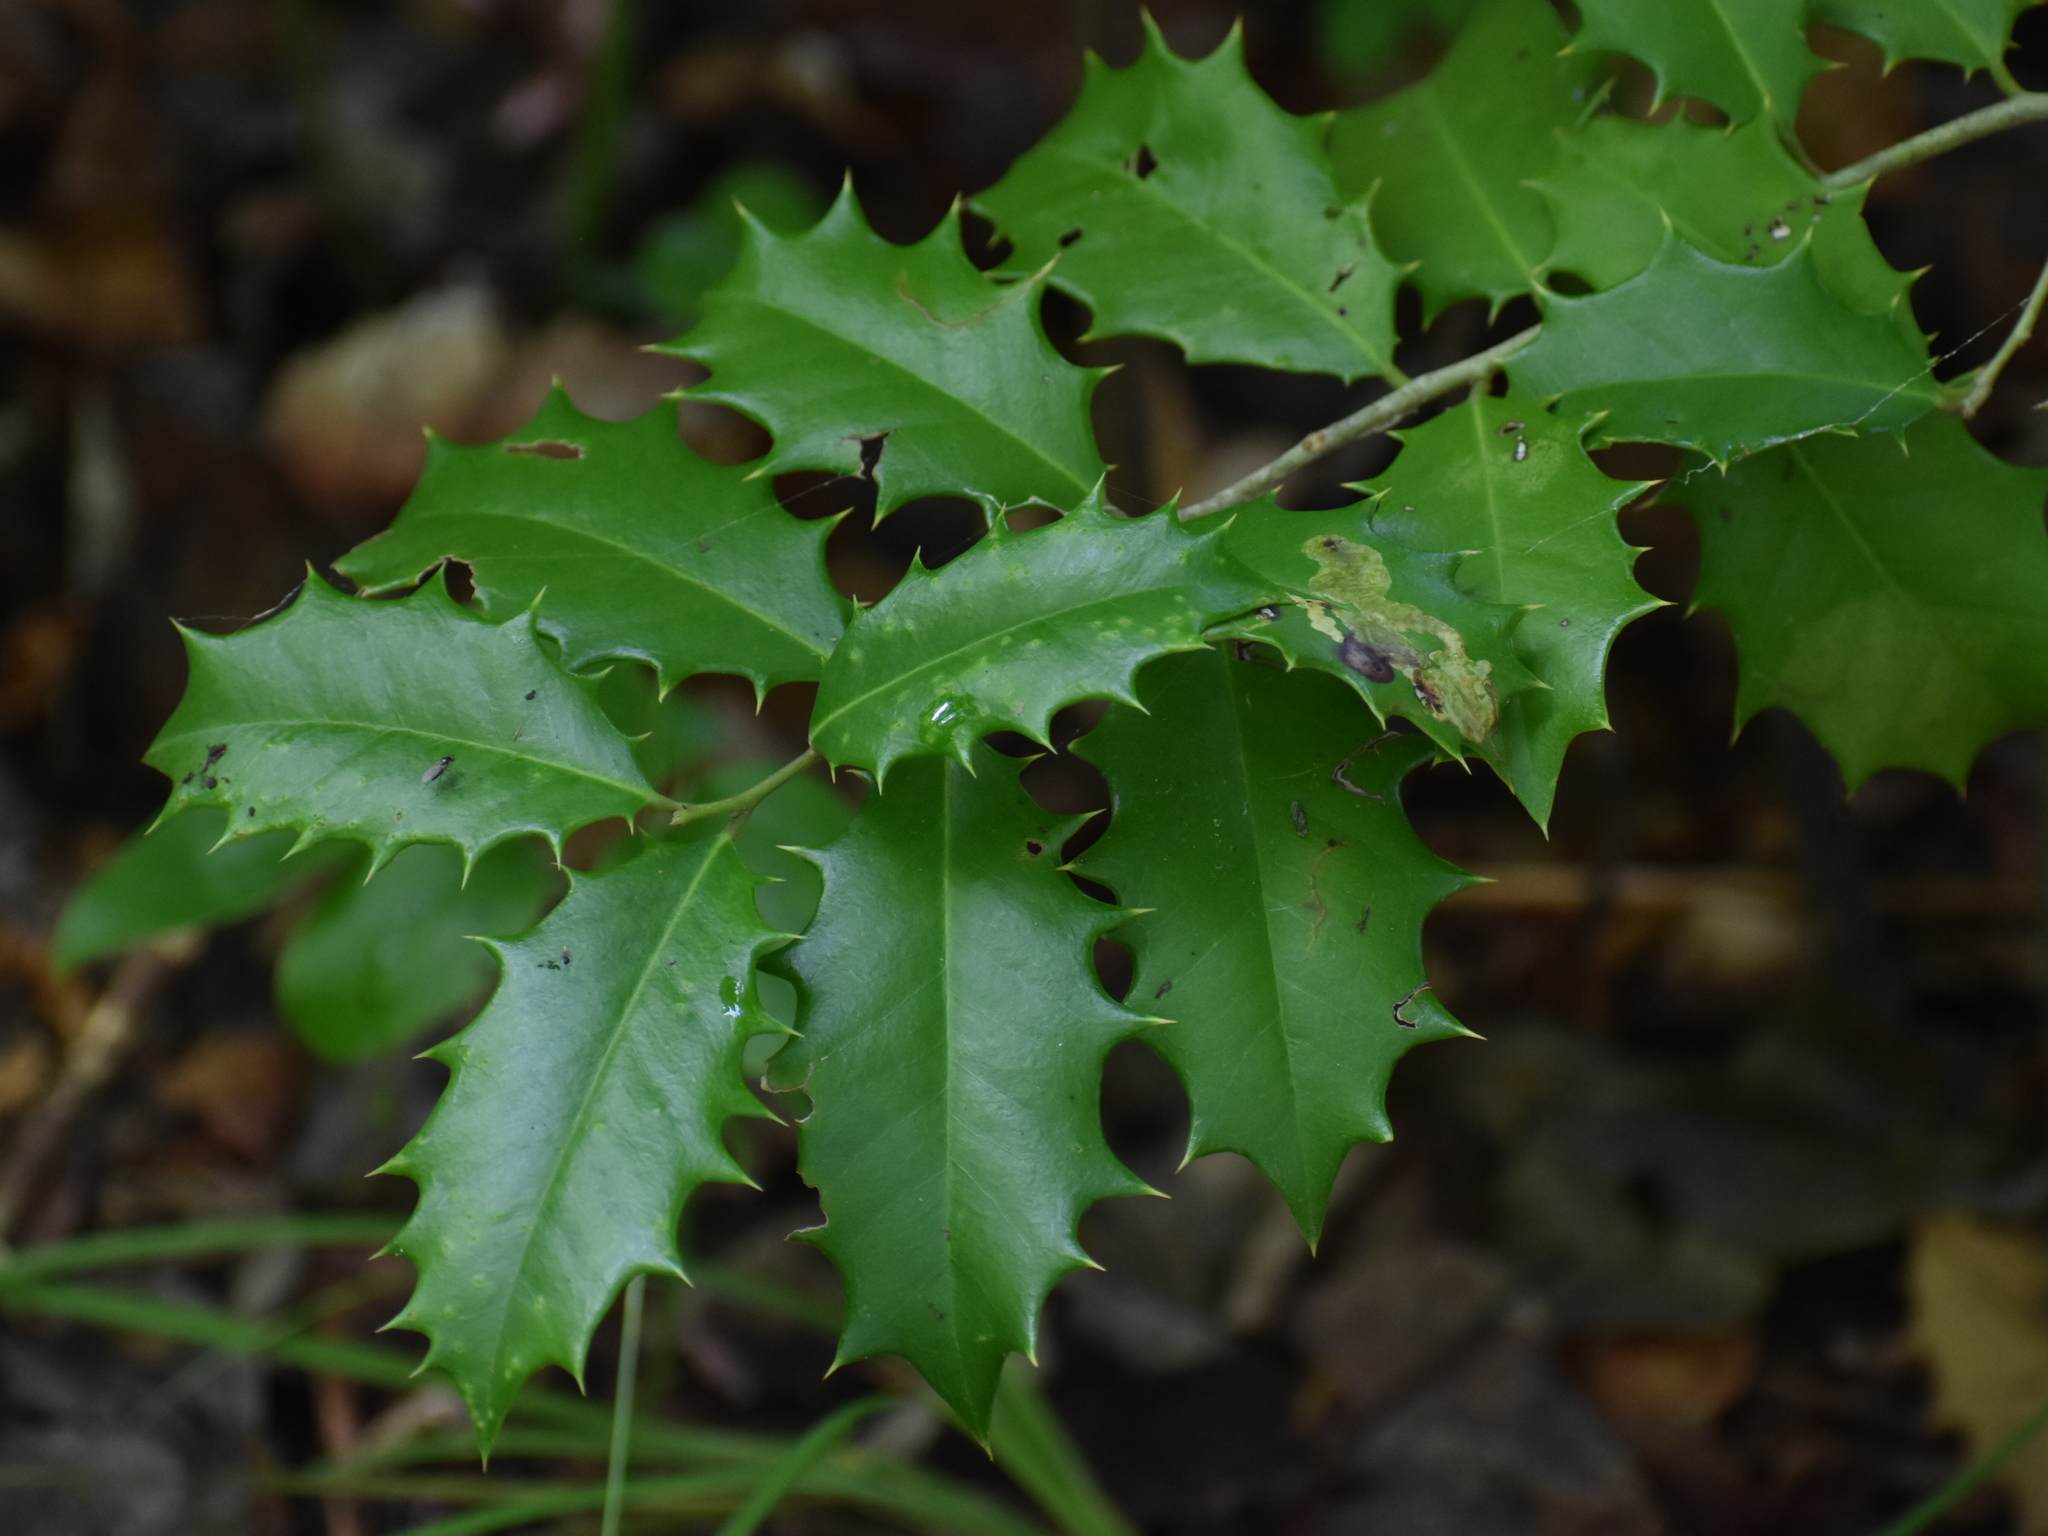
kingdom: Plantae
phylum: Tracheophyta
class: Magnoliopsida
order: Aquifoliales
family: Aquifoliaceae
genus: Ilex
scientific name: Ilex opaca
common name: American holly
